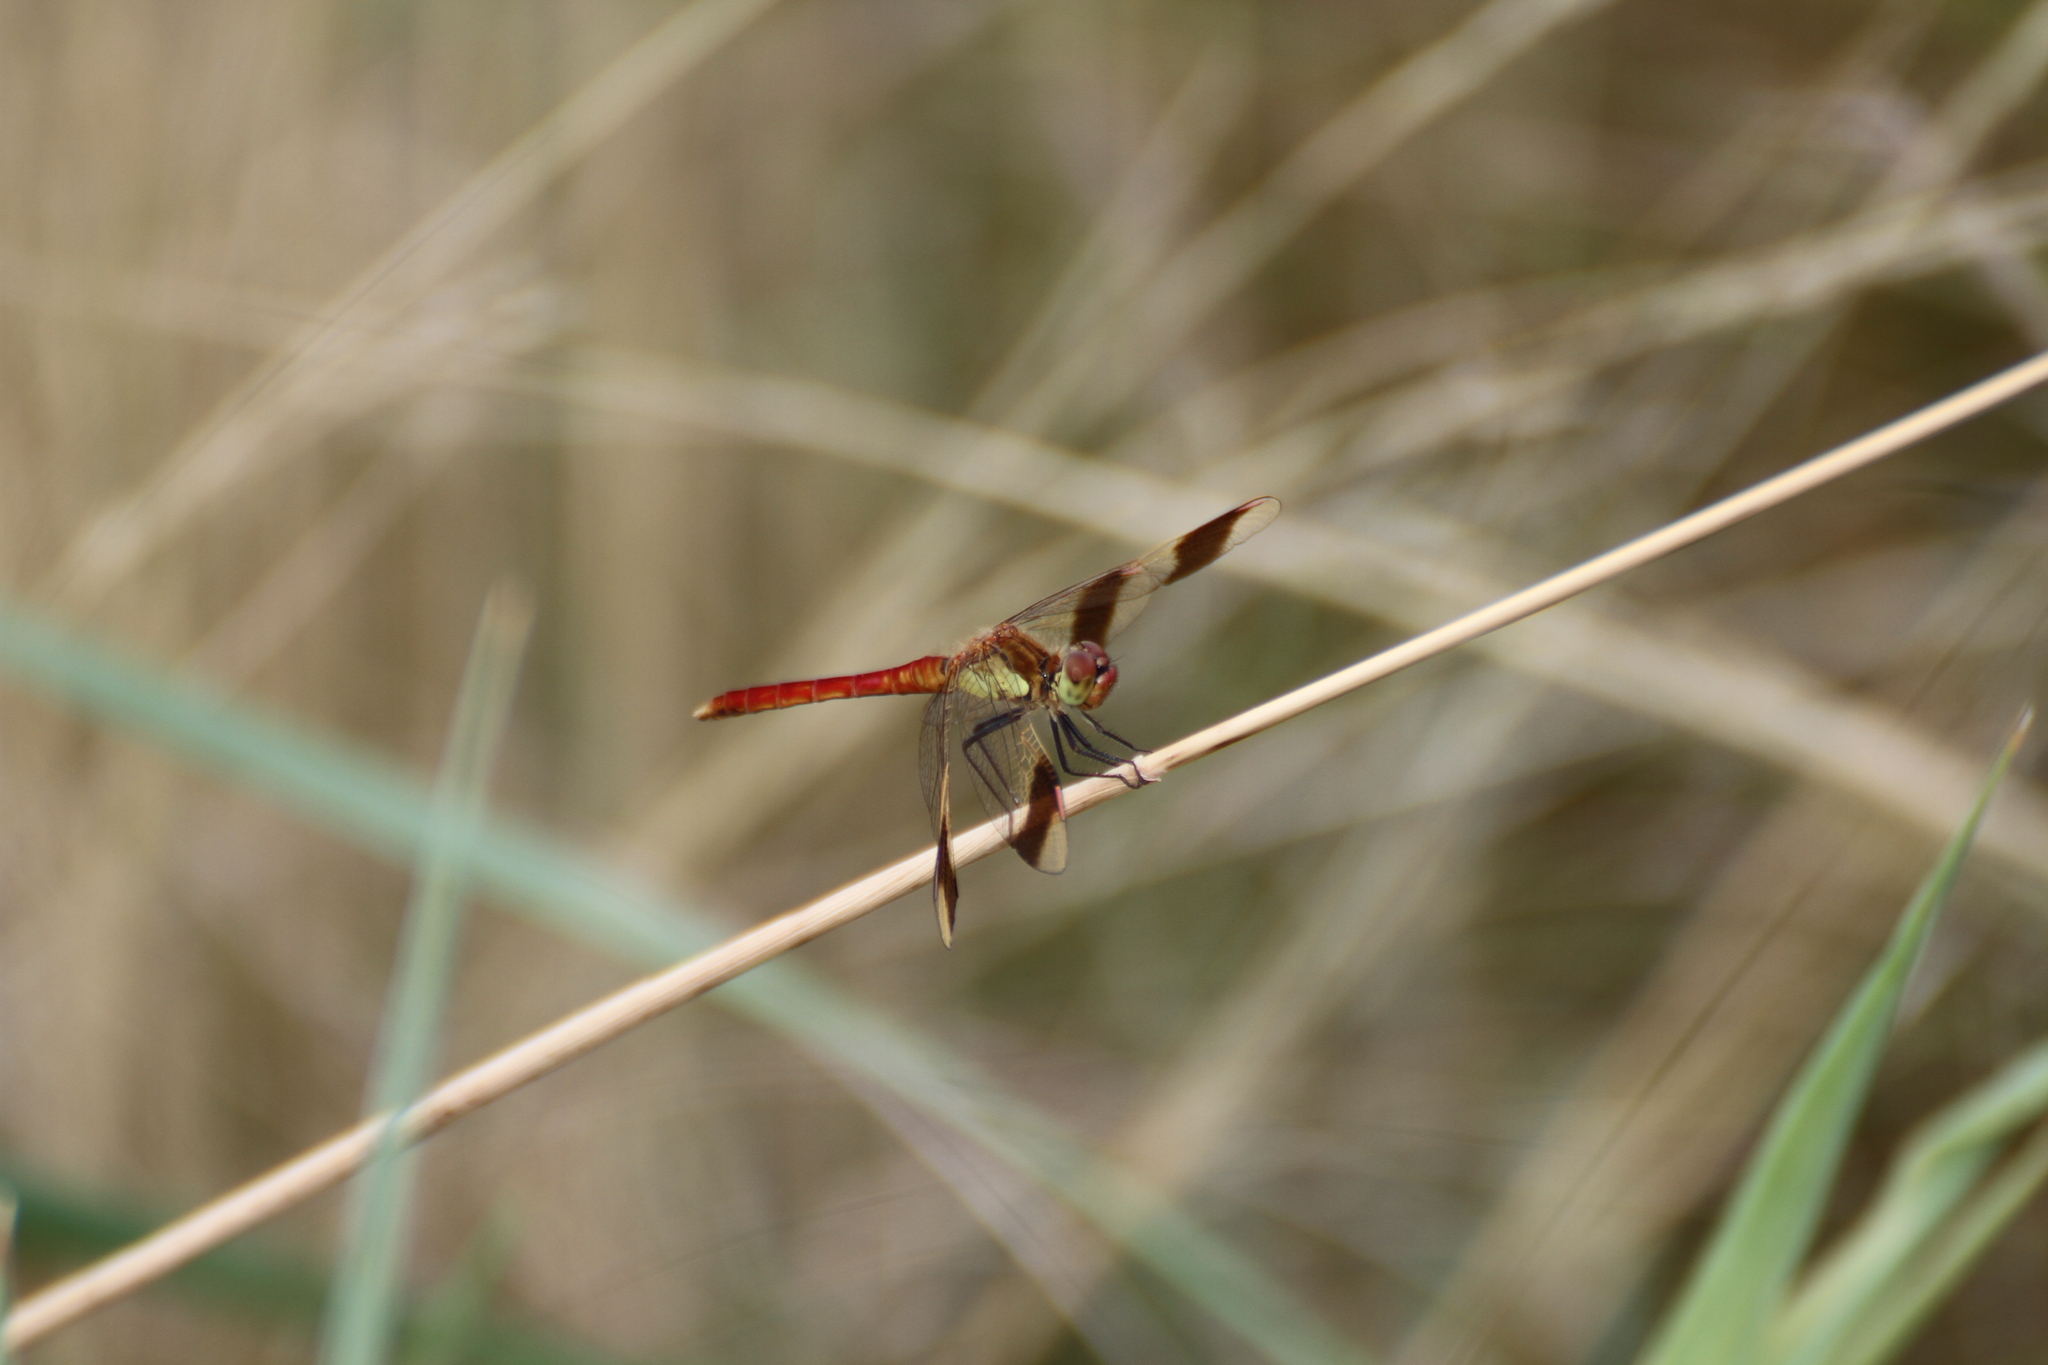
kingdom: Animalia
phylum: Arthropoda
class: Insecta
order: Odonata
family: Libellulidae
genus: Sympetrum
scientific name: Sympetrum pedemontanum
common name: Banded darter
